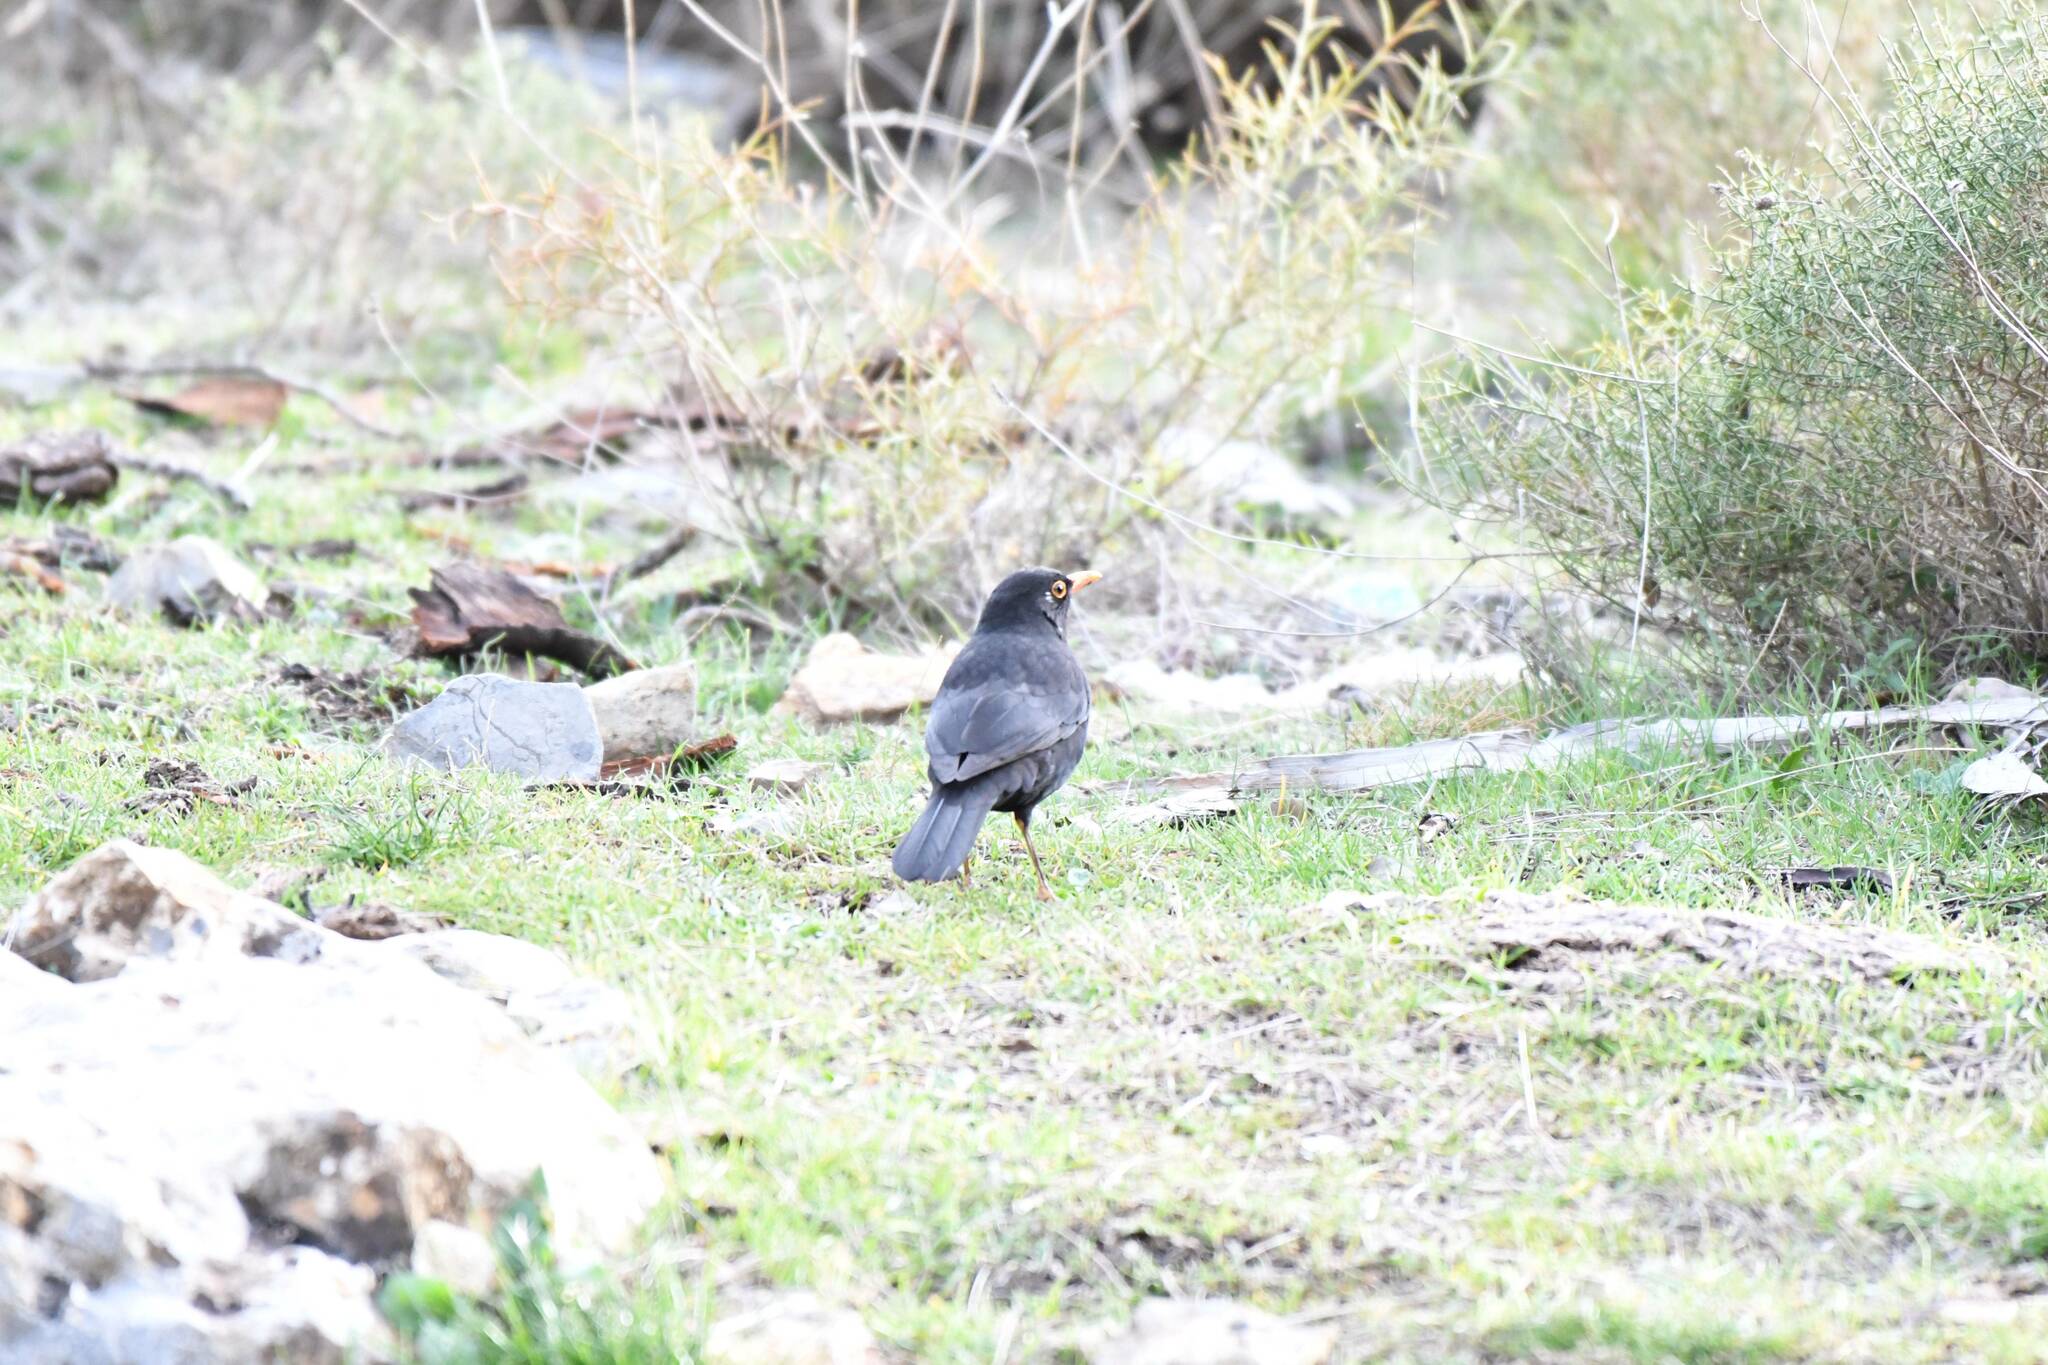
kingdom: Animalia
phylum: Chordata
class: Aves
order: Passeriformes
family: Turdidae
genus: Turdus
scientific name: Turdus merula
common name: Common blackbird
